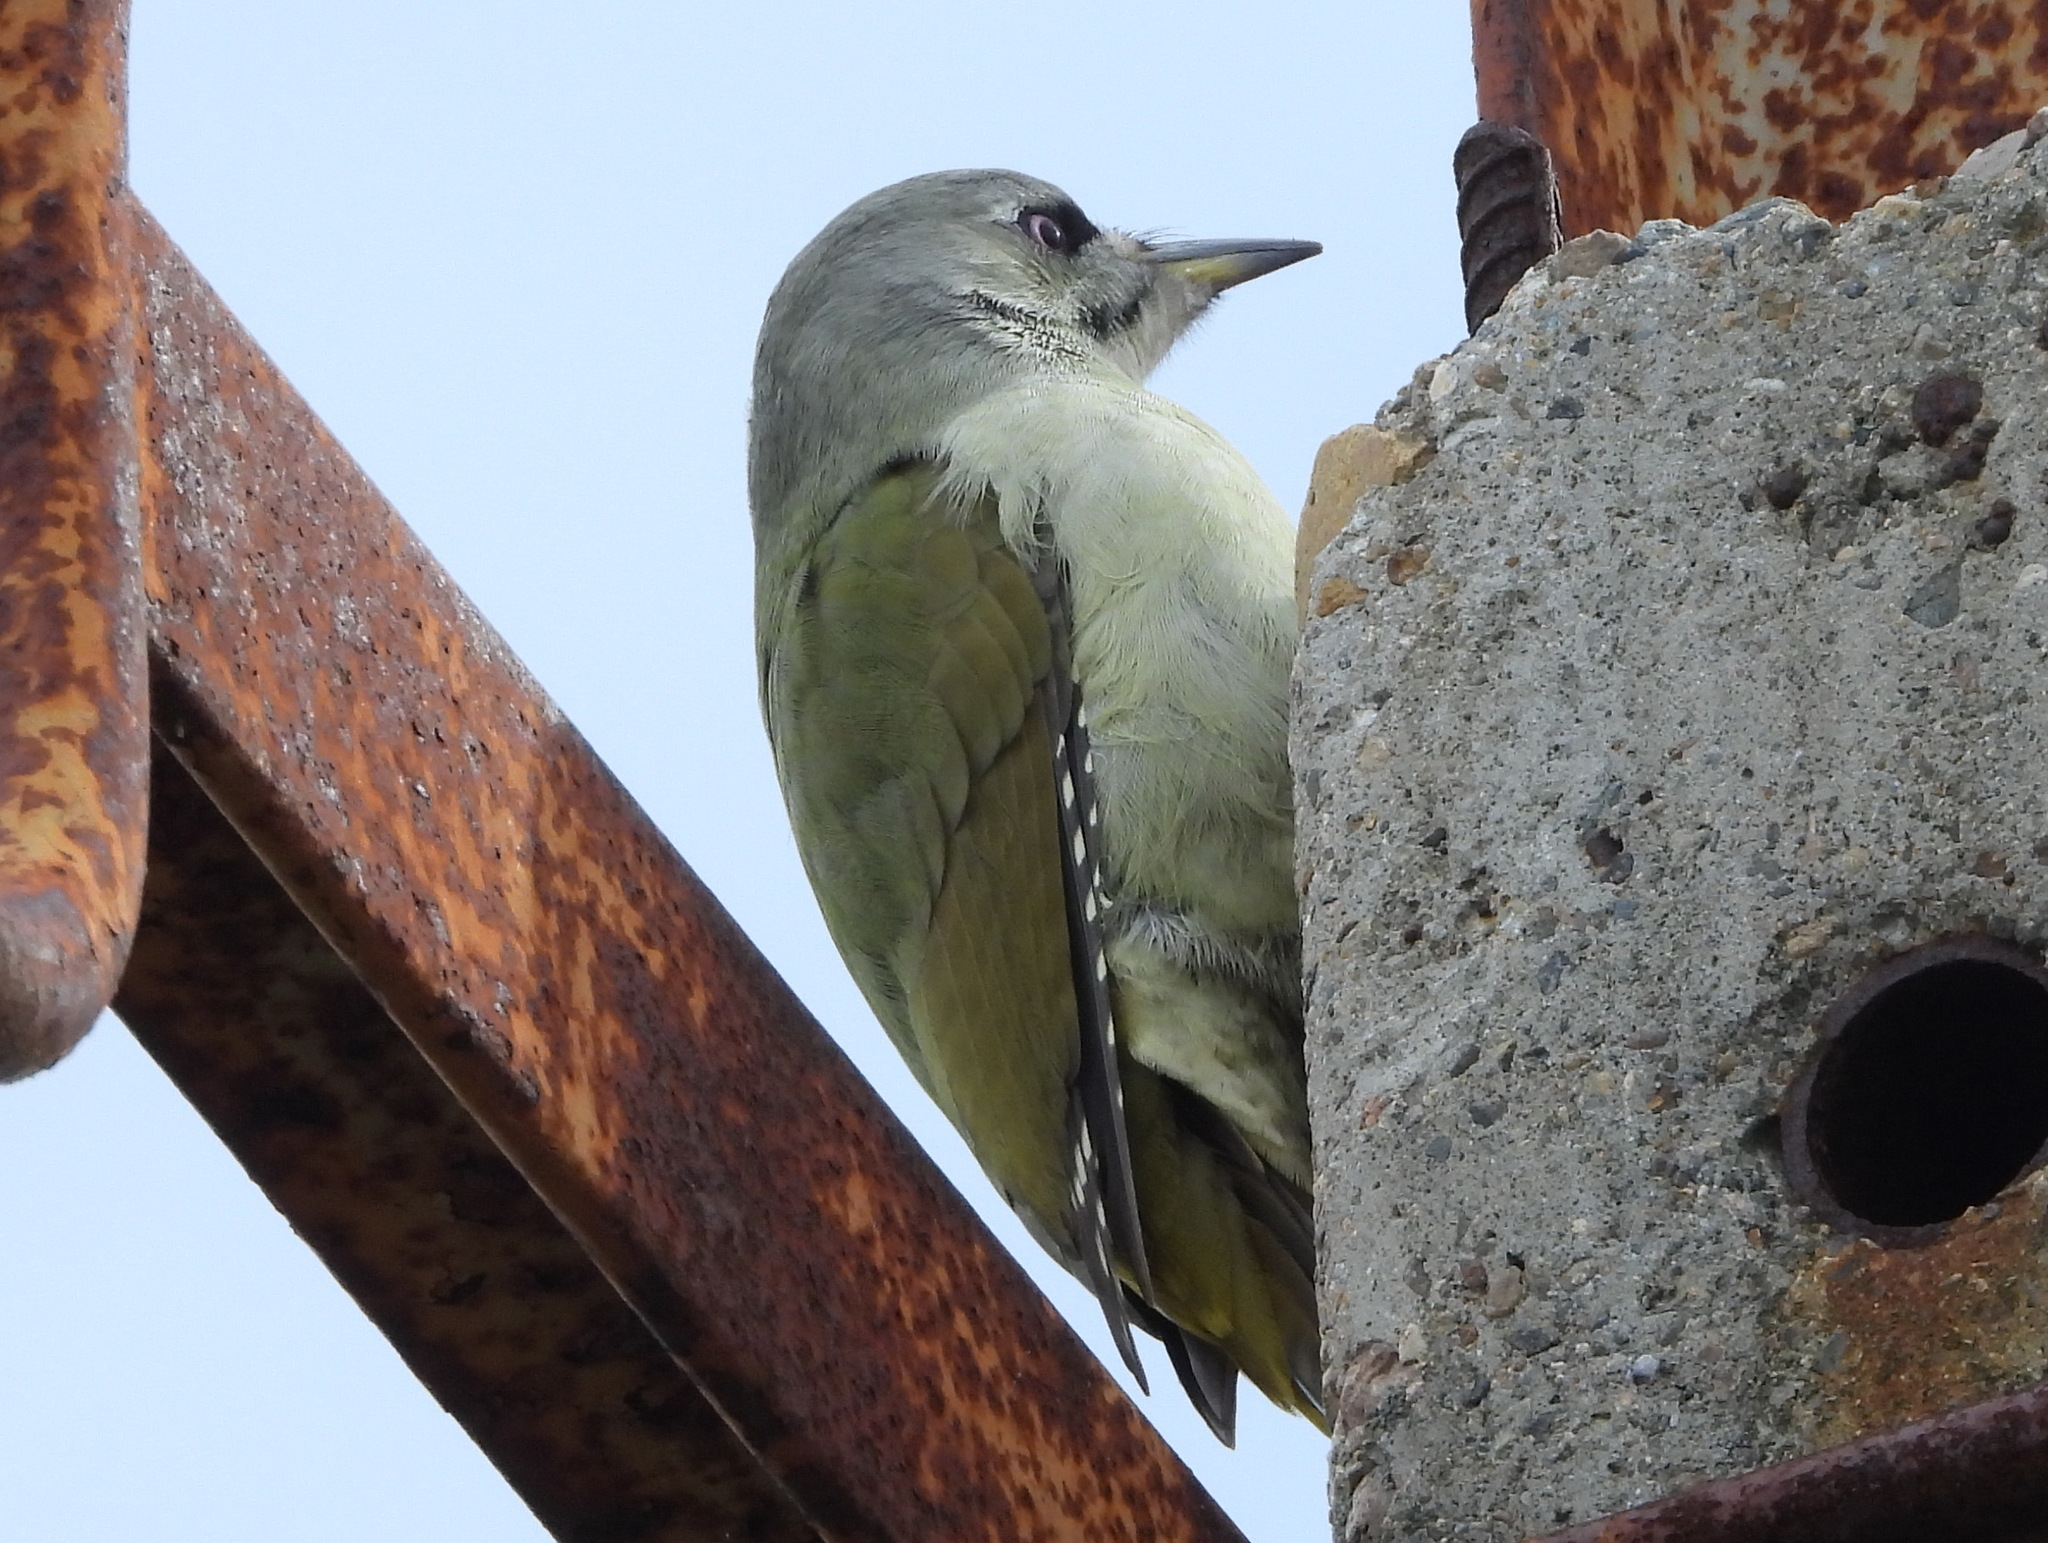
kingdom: Animalia
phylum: Chordata
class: Aves
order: Piciformes
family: Picidae
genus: Picus
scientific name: Picus canus
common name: Grey-headed woodpecker
